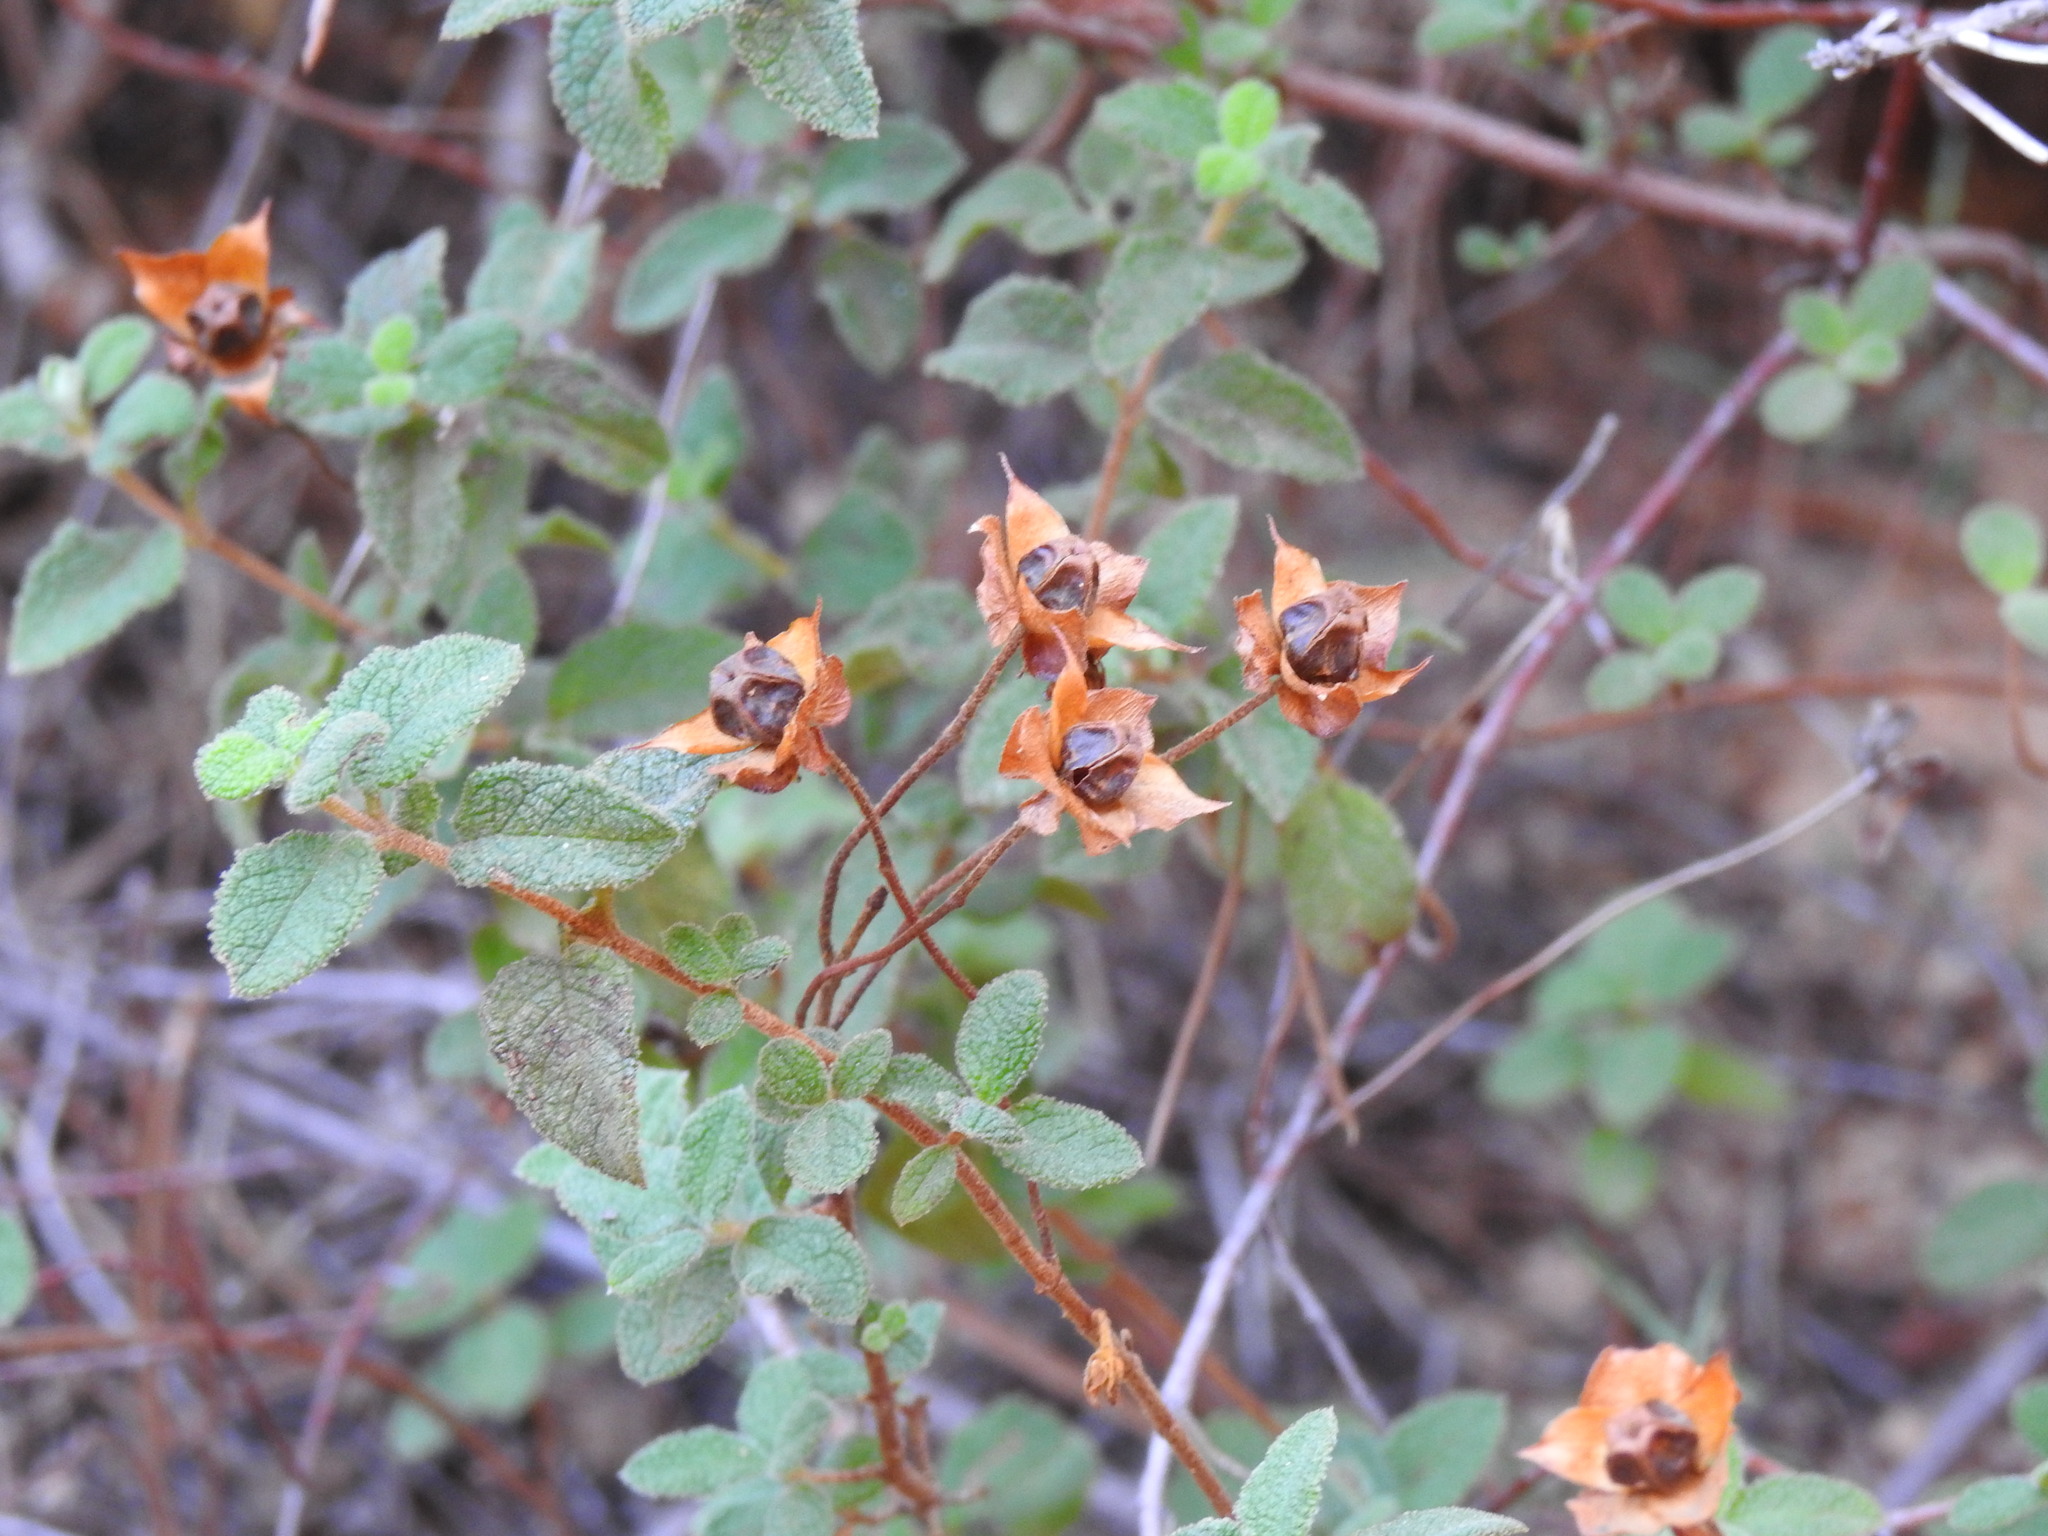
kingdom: Plantae
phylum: Tracheophyta
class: Magnoliopsida
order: Malvales
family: Cistaceae
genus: Cistus
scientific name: Cistus salviifolius
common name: Salvia cistus
